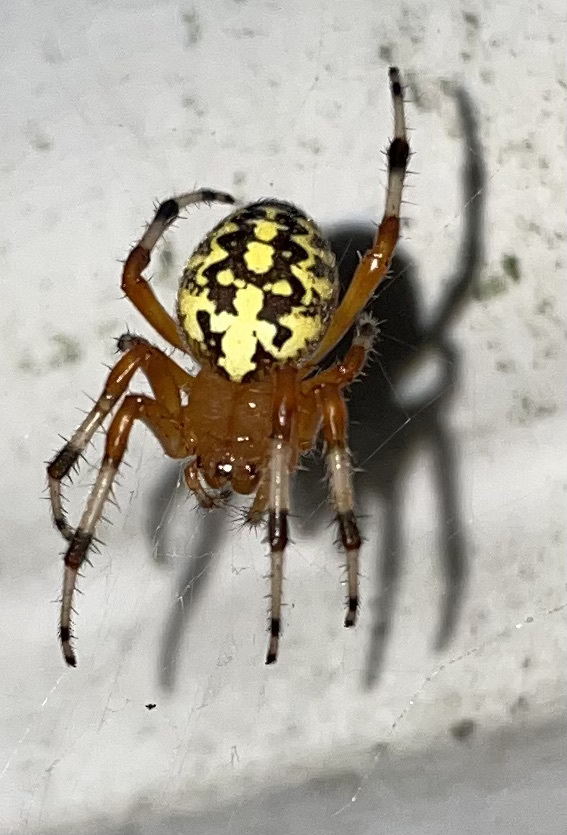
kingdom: Animalia
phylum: Arthropoda
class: Arachnida
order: Araneae
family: Araneidae
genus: Araneus
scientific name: Araneus marmoreus
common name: Marbled orbweaver
